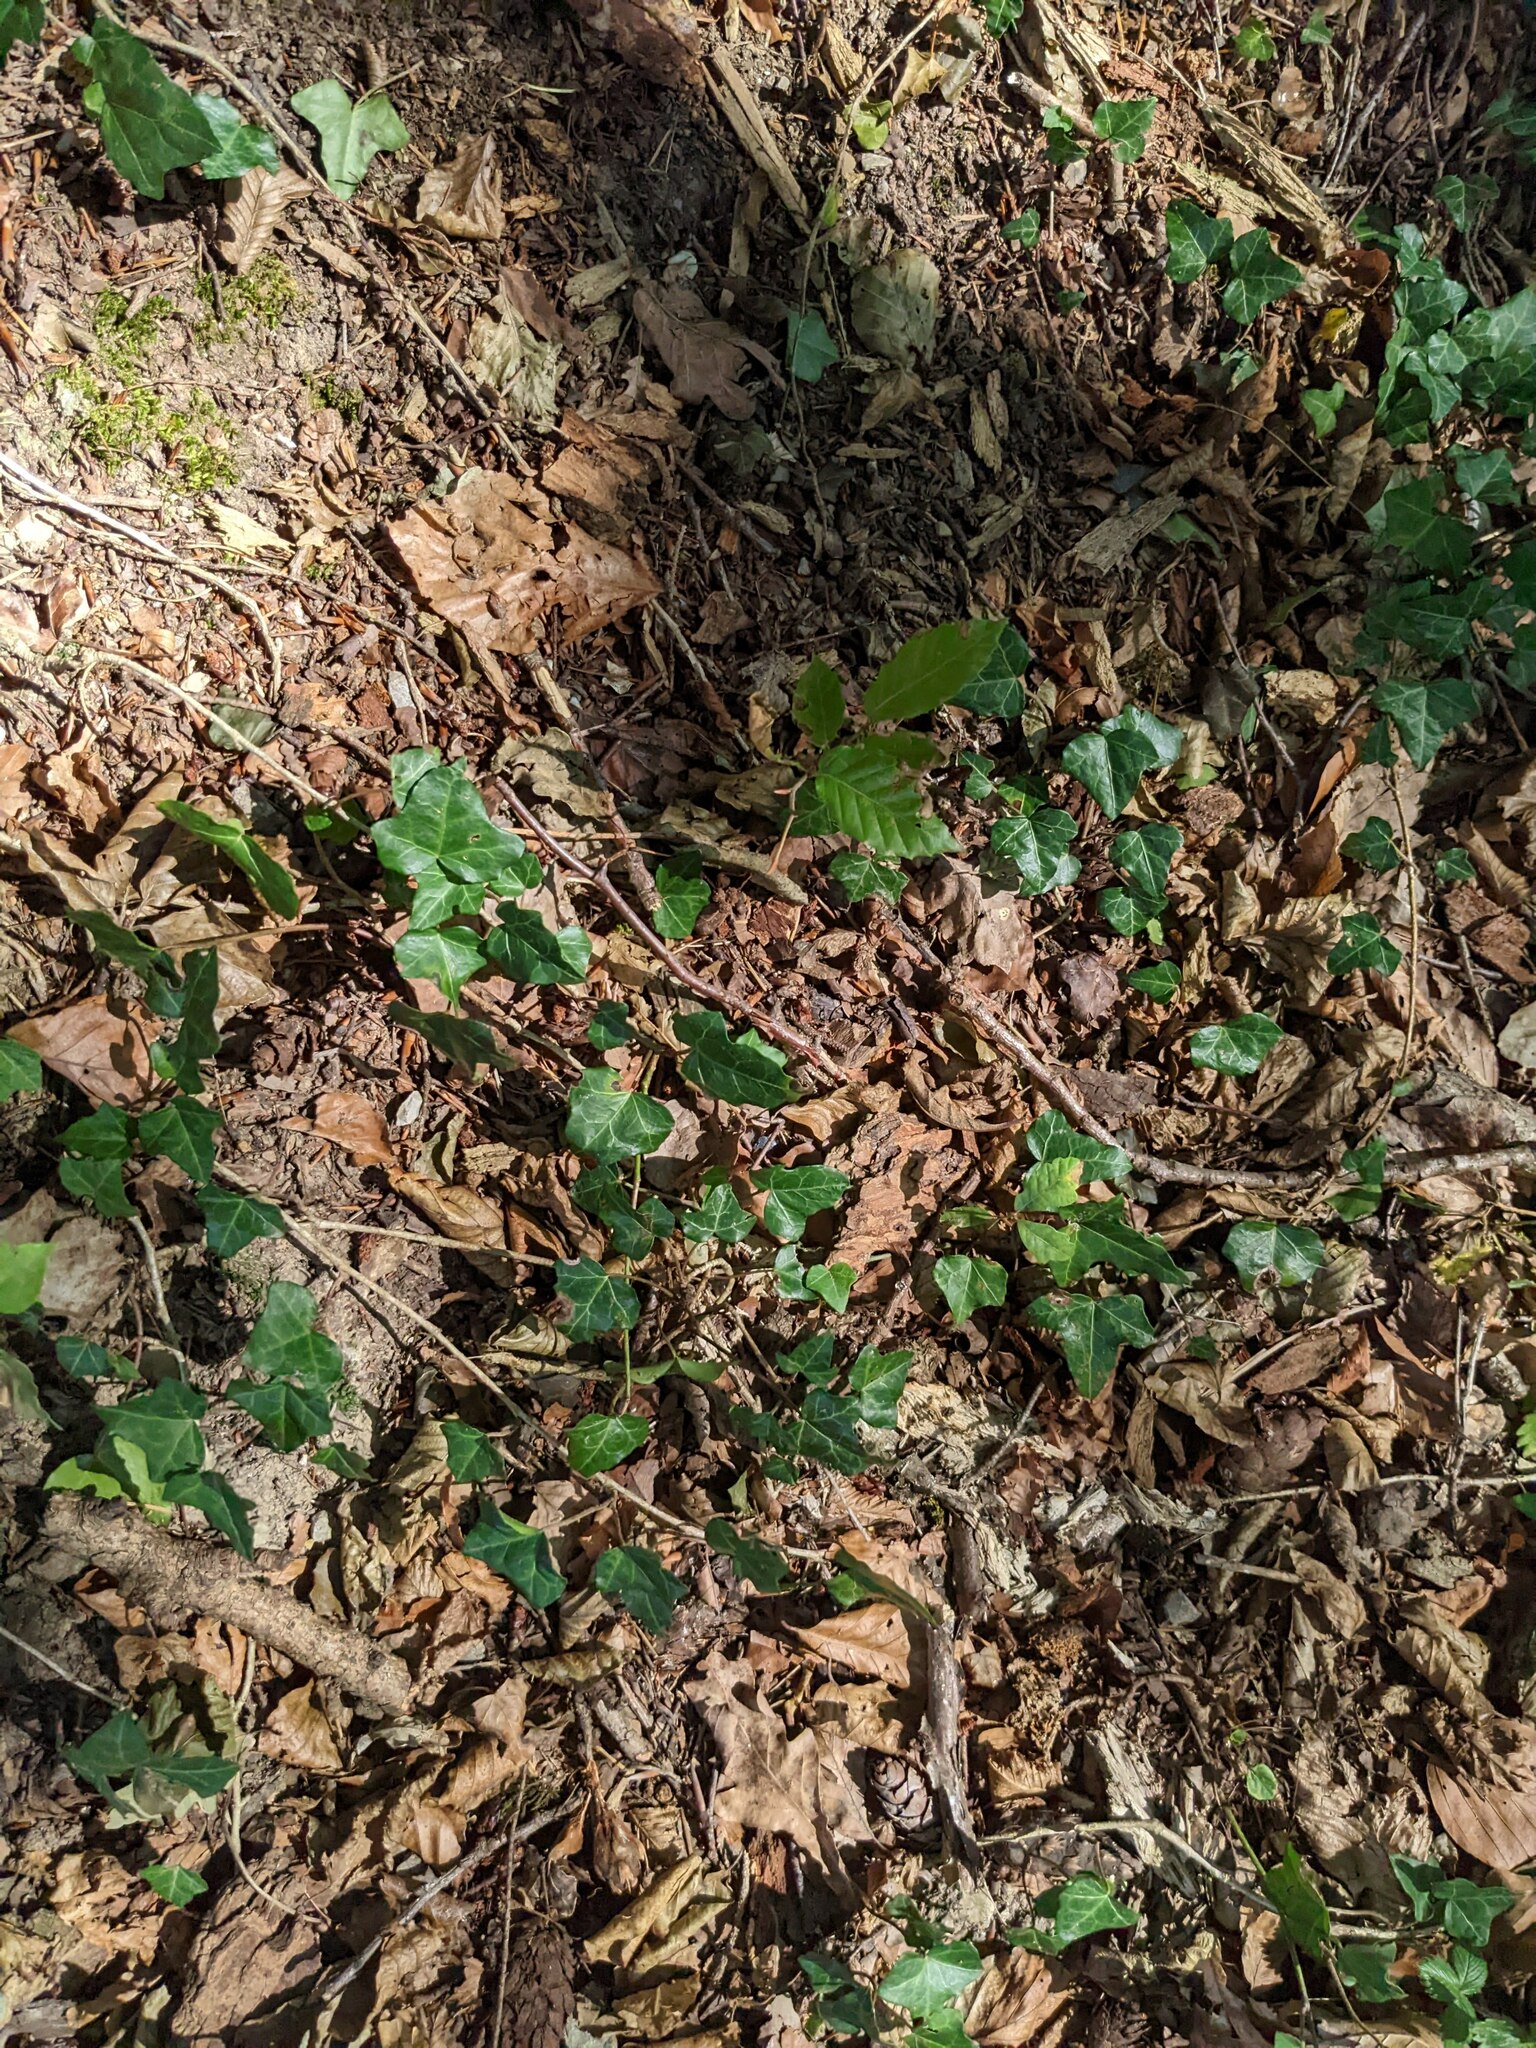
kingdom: Plantae
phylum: Tracheophyta
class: Magnoliopsida
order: Apiales
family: Araliaceae
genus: Hedera
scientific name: Hedera helix
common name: Ivy
